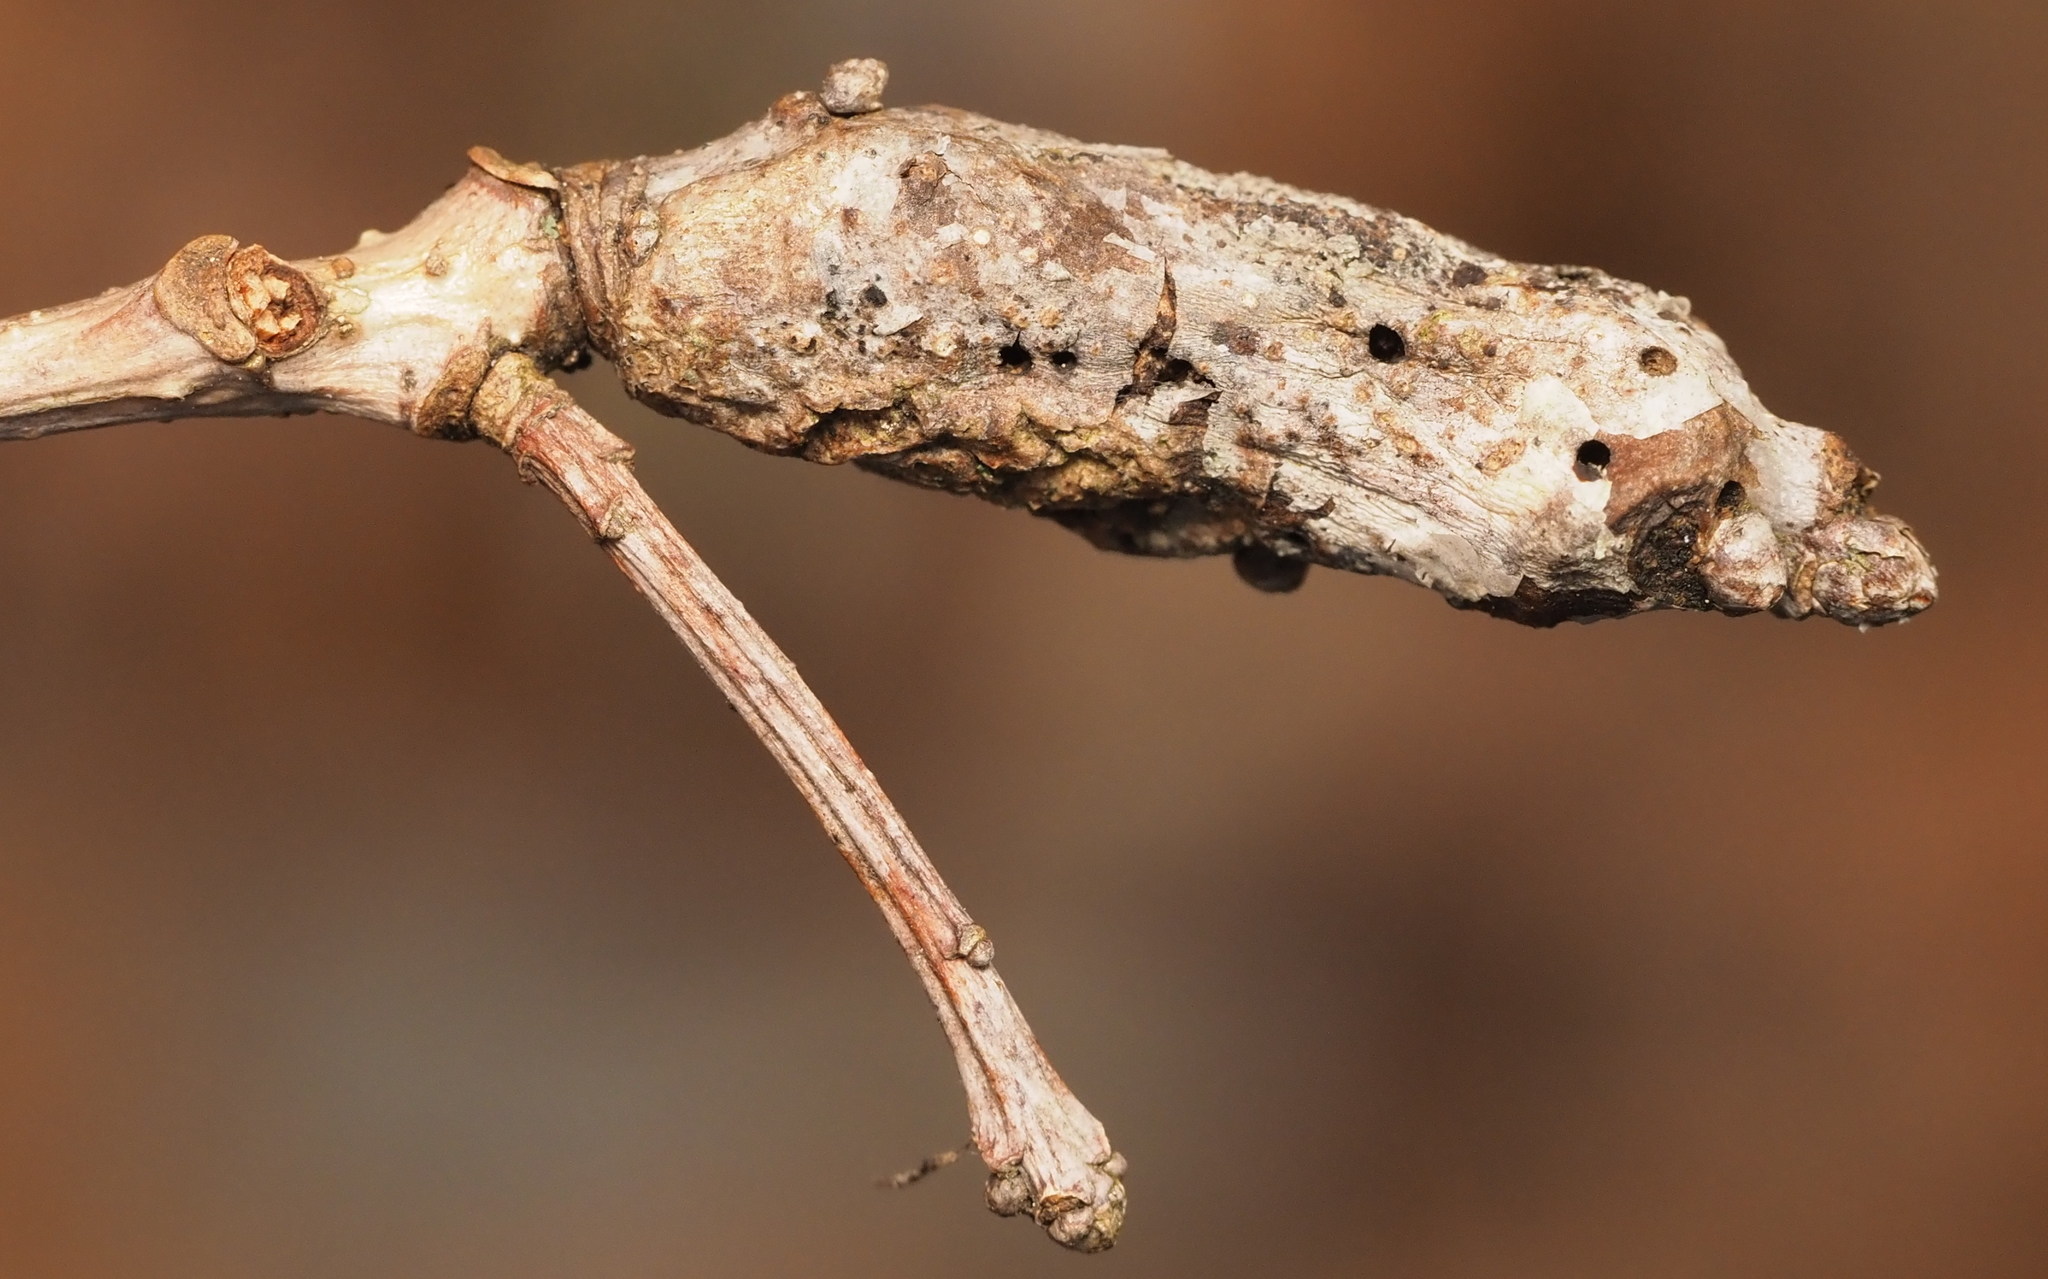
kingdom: Animalia
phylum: Arthropoda
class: Insecta
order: Hymenoptera
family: Cynipidae
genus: Neuroterus
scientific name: Neuroterus quercusbaccarum
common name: Common spangle gall
